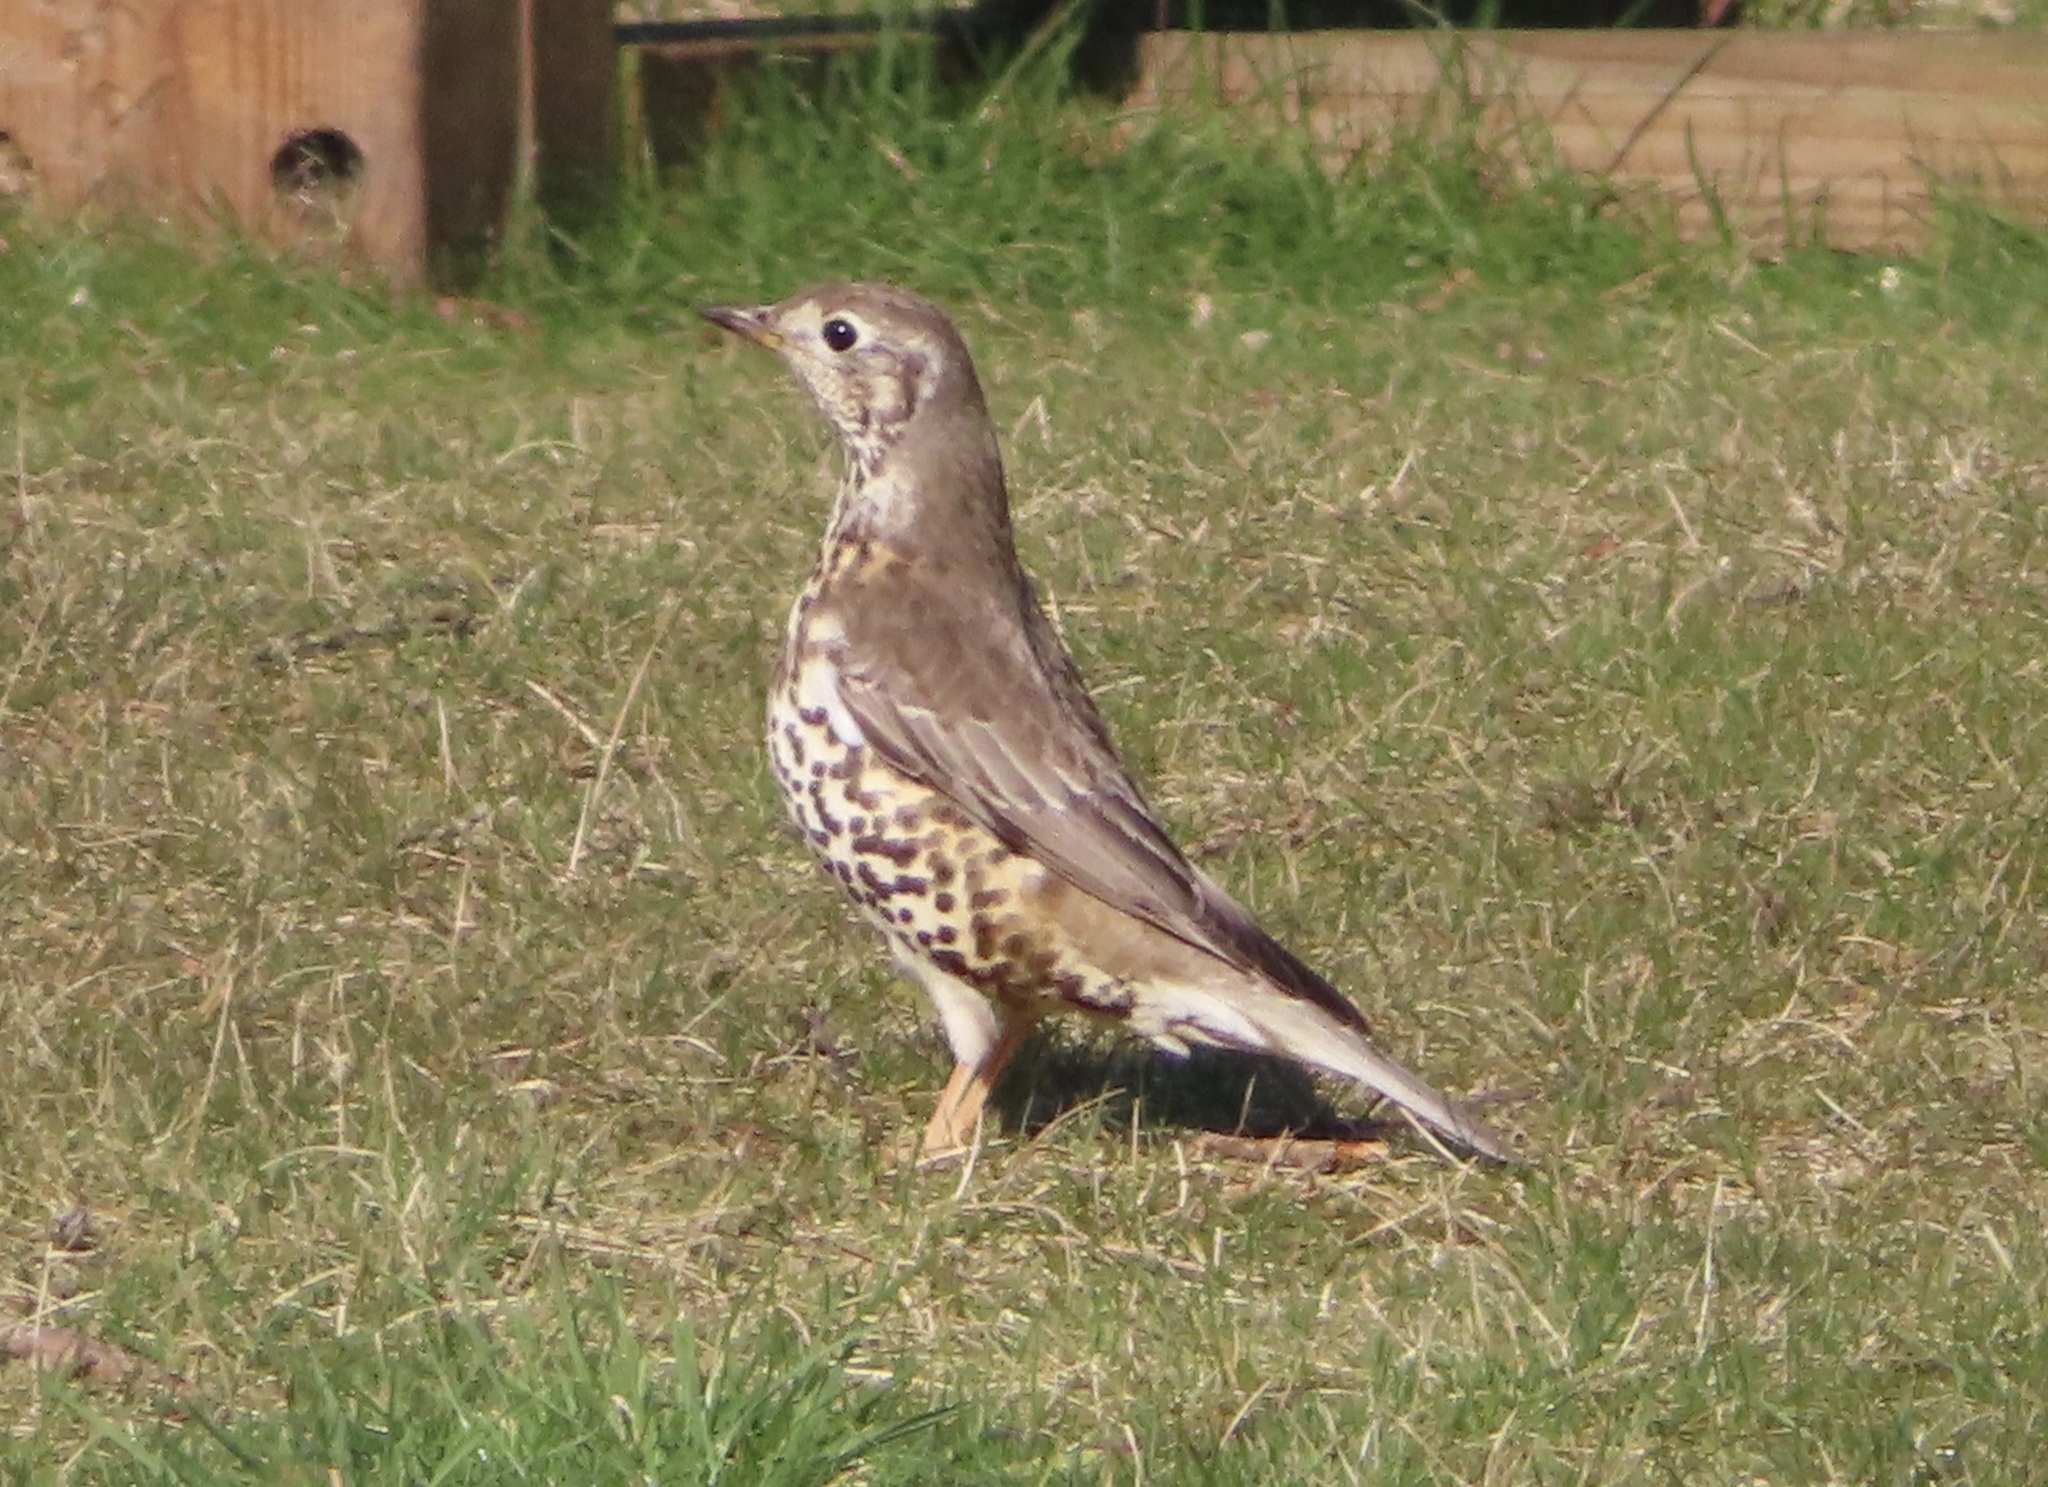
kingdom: Animalia
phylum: Chordata
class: Aves
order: Passeriformes
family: Turdidae
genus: Turdus
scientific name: Turdus viscivorus
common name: Mistle thrush
